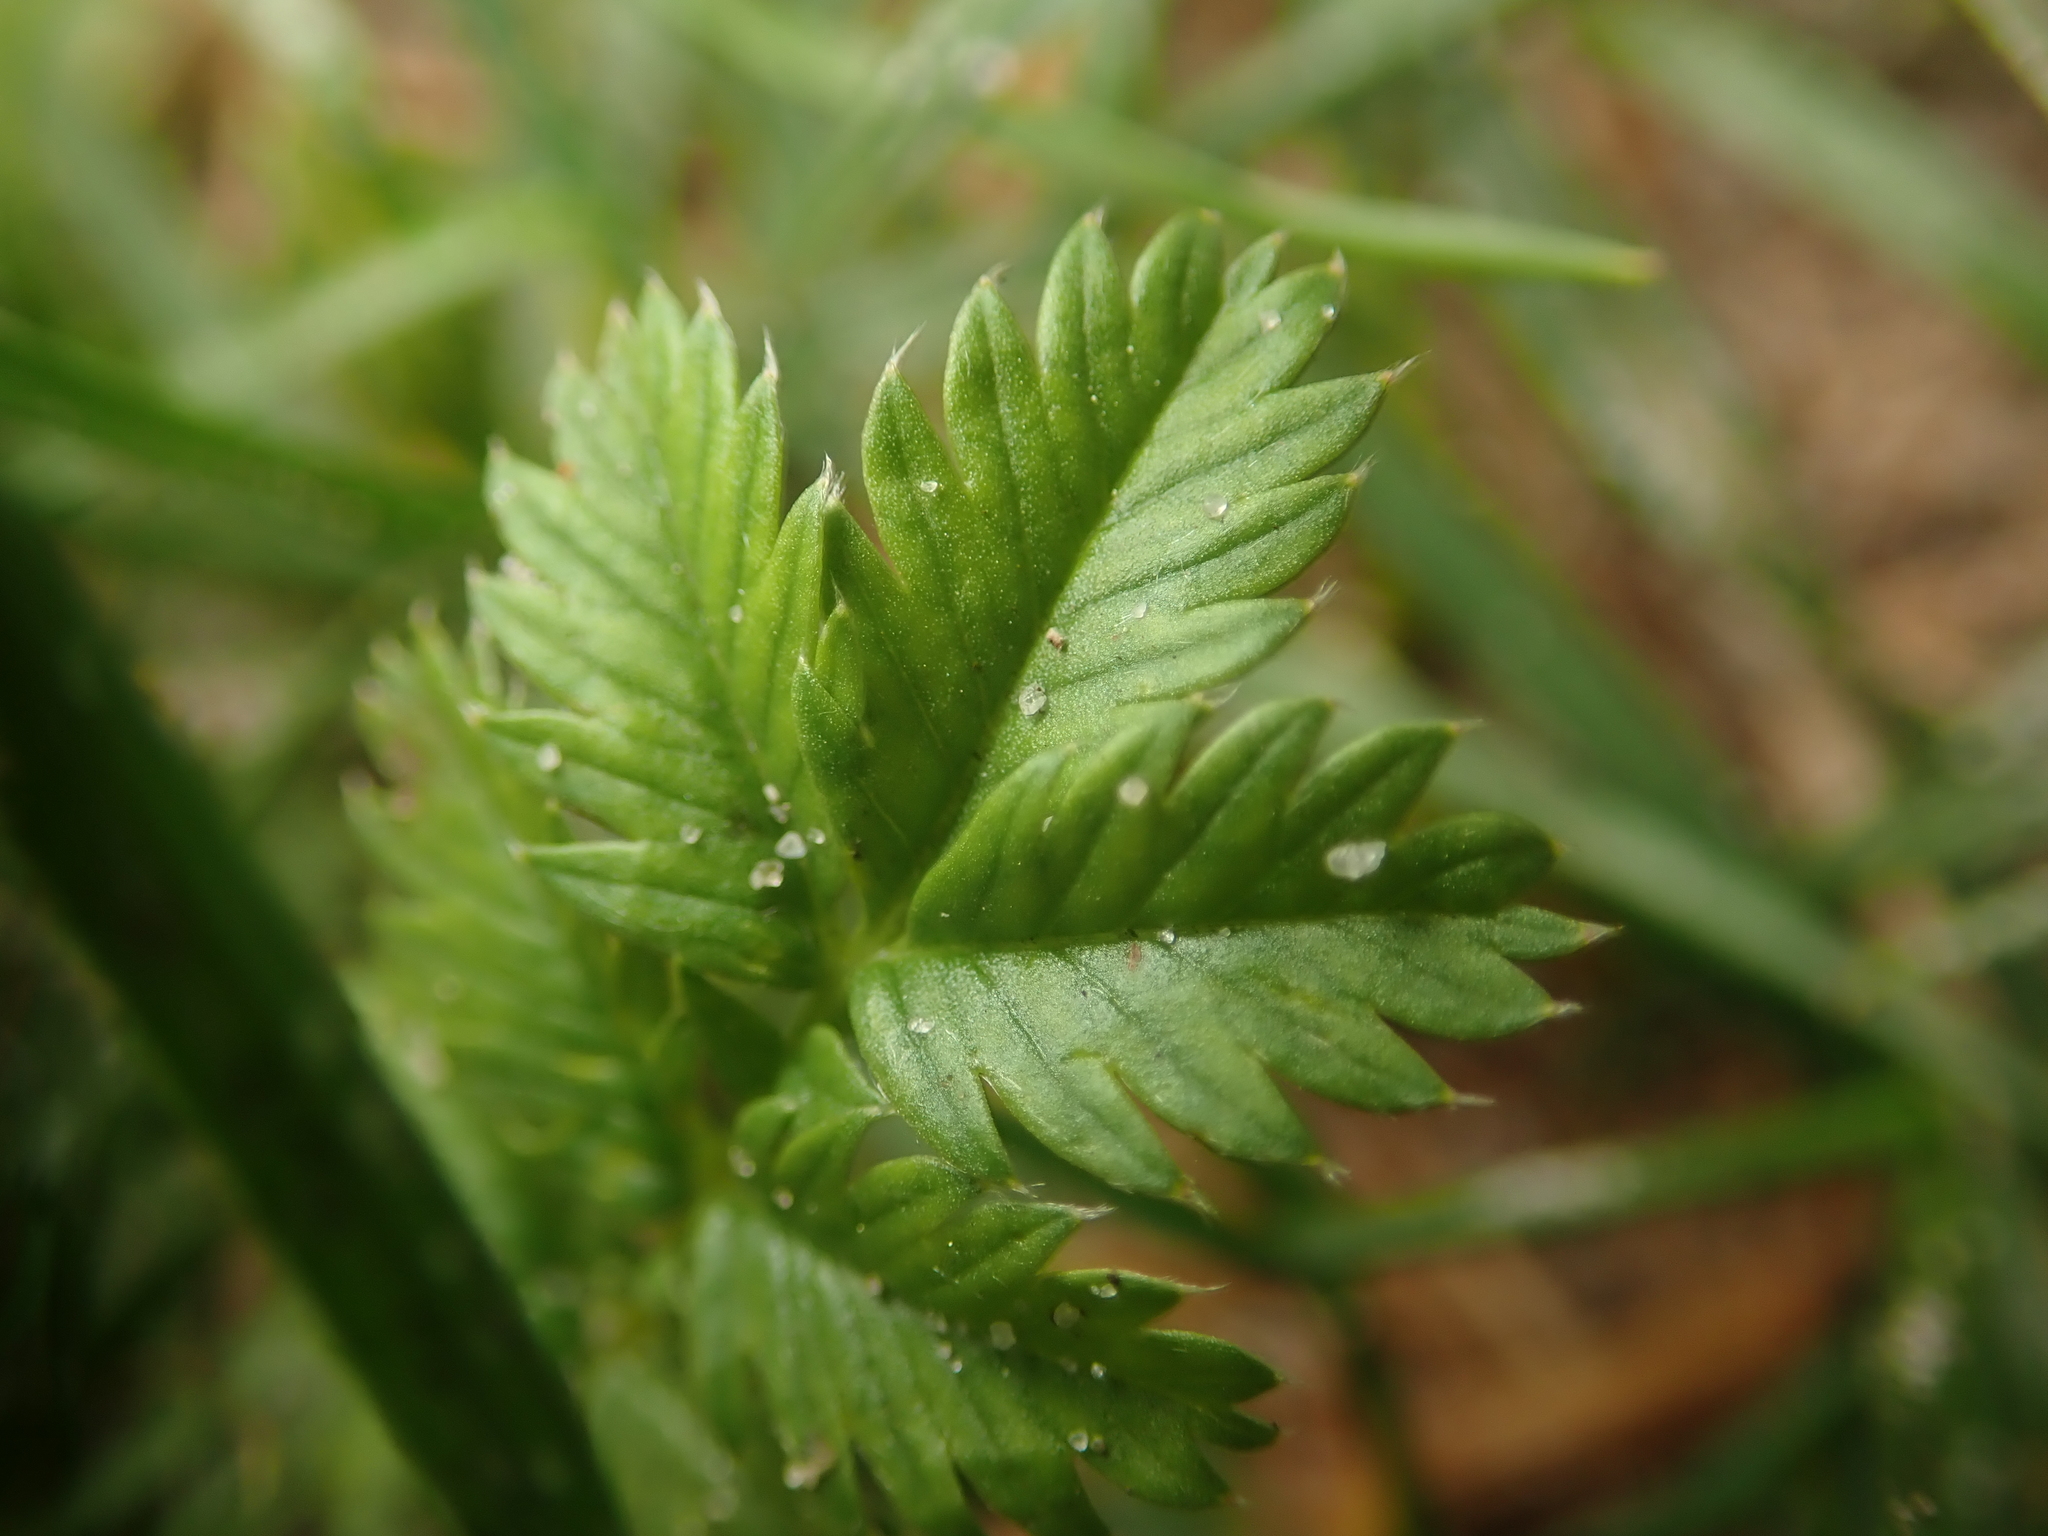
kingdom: Plantae
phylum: Tracheophyta
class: Magnoliopsida
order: Rosales
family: Rosaceae
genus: Argentina
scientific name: Argentina anserina
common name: Common silverweed
